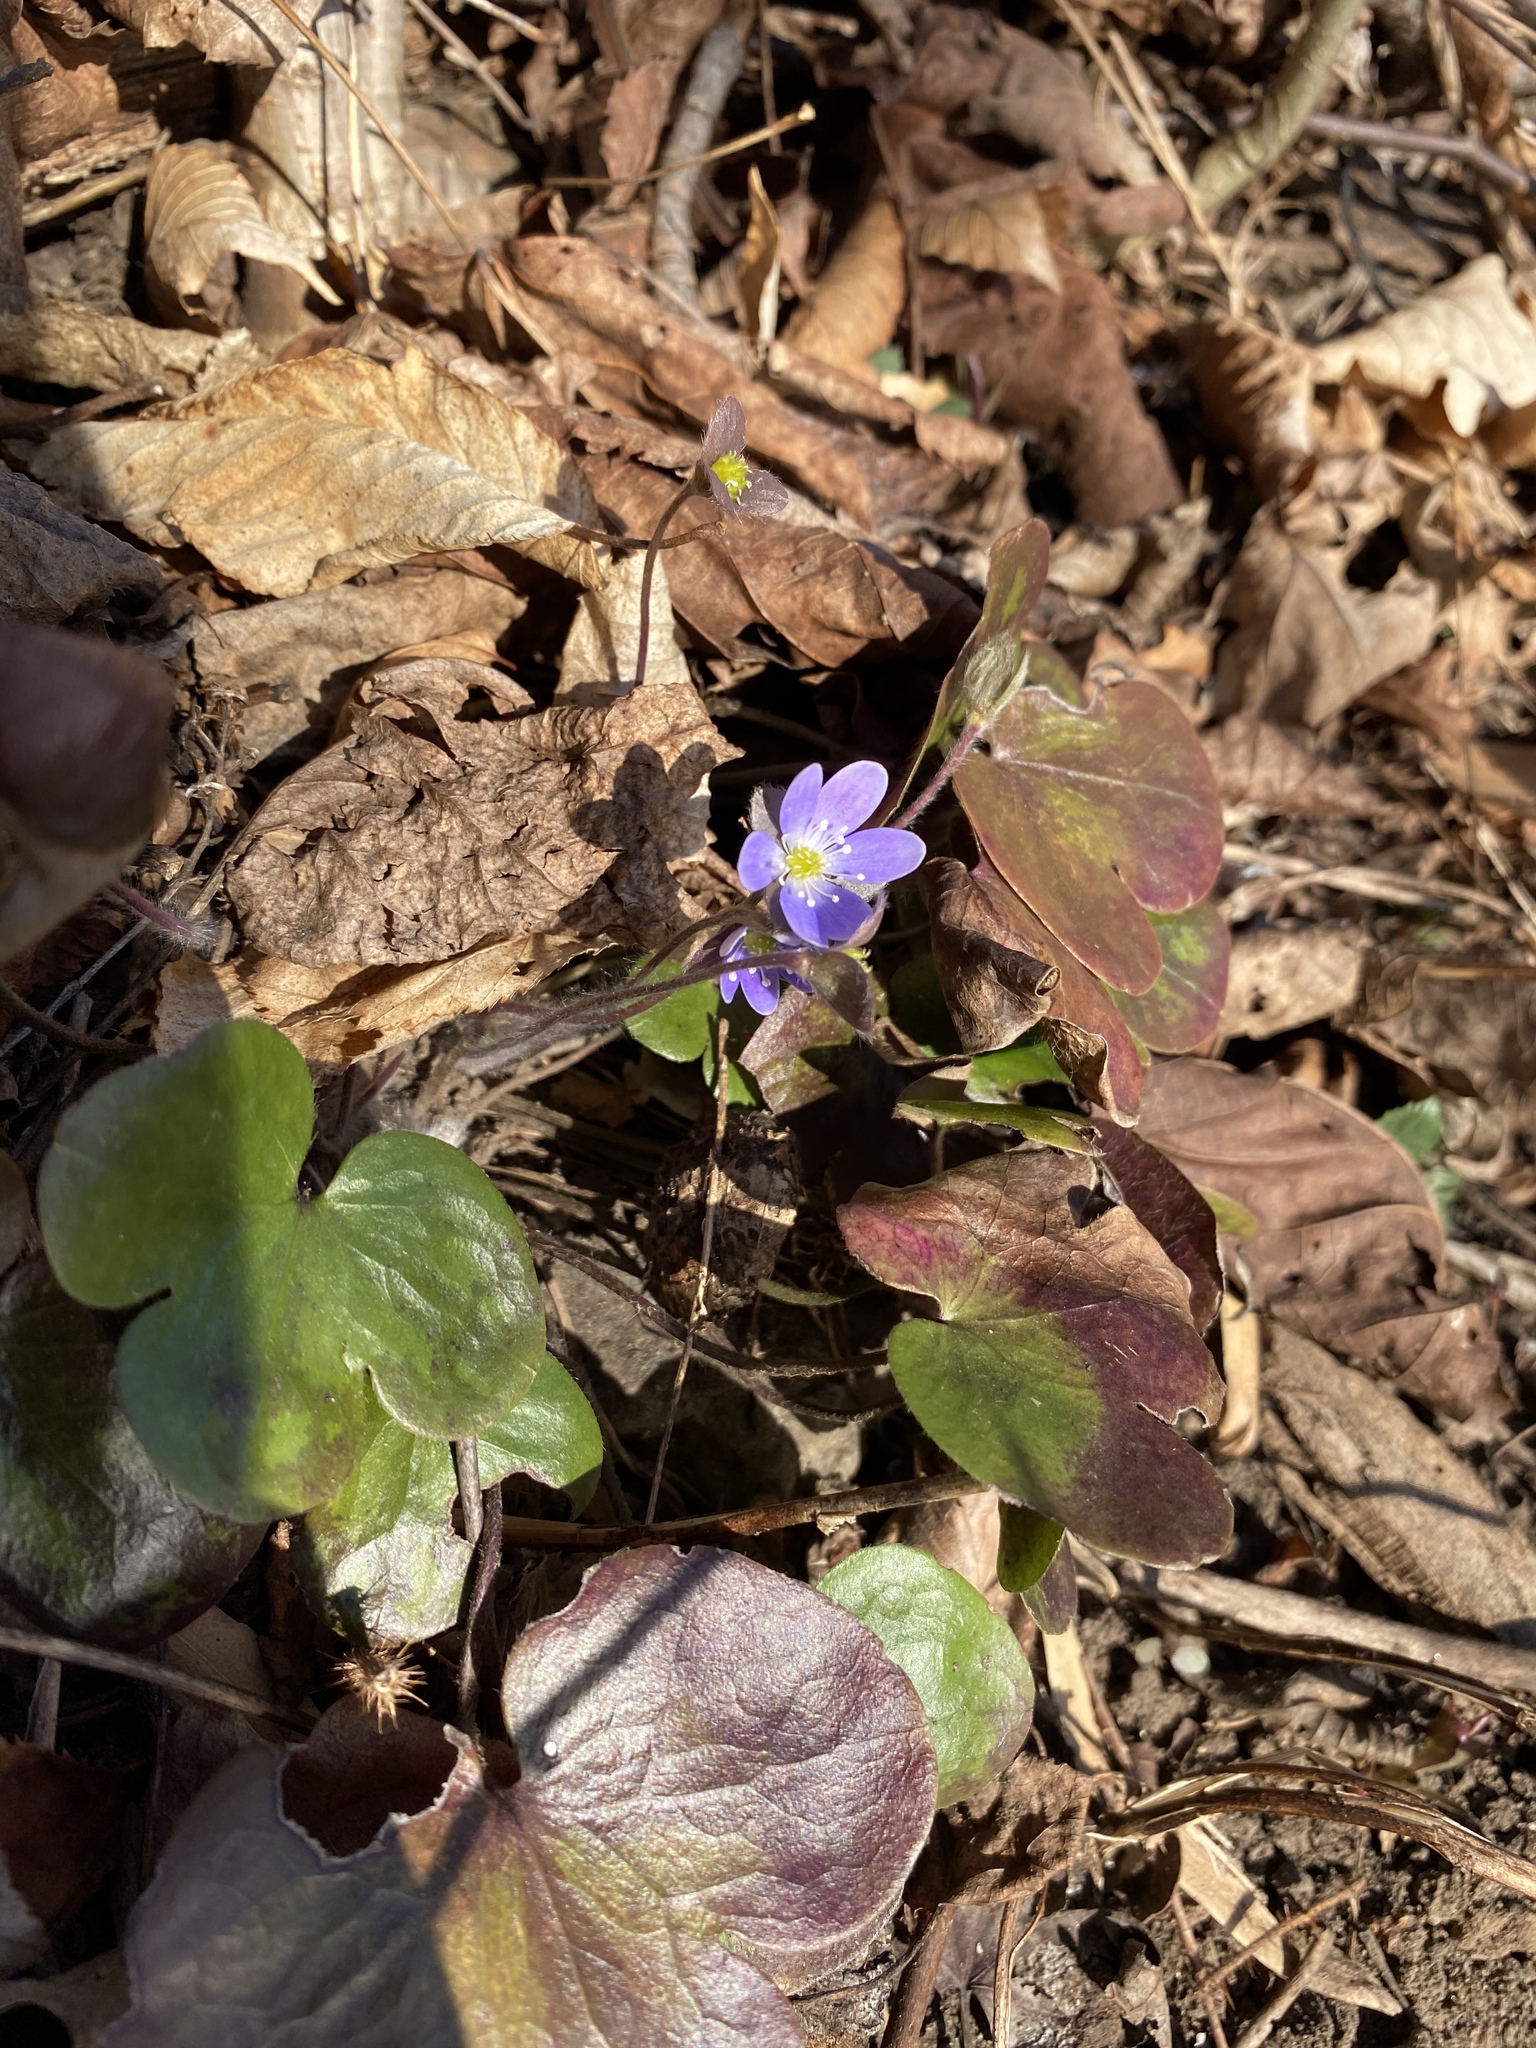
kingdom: Plantae
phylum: Tracheophyta
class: Magnoliopsida
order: Ranunculales
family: Ranunculaceae
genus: Hepatica
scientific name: Hepatica americana
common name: American hepatica
